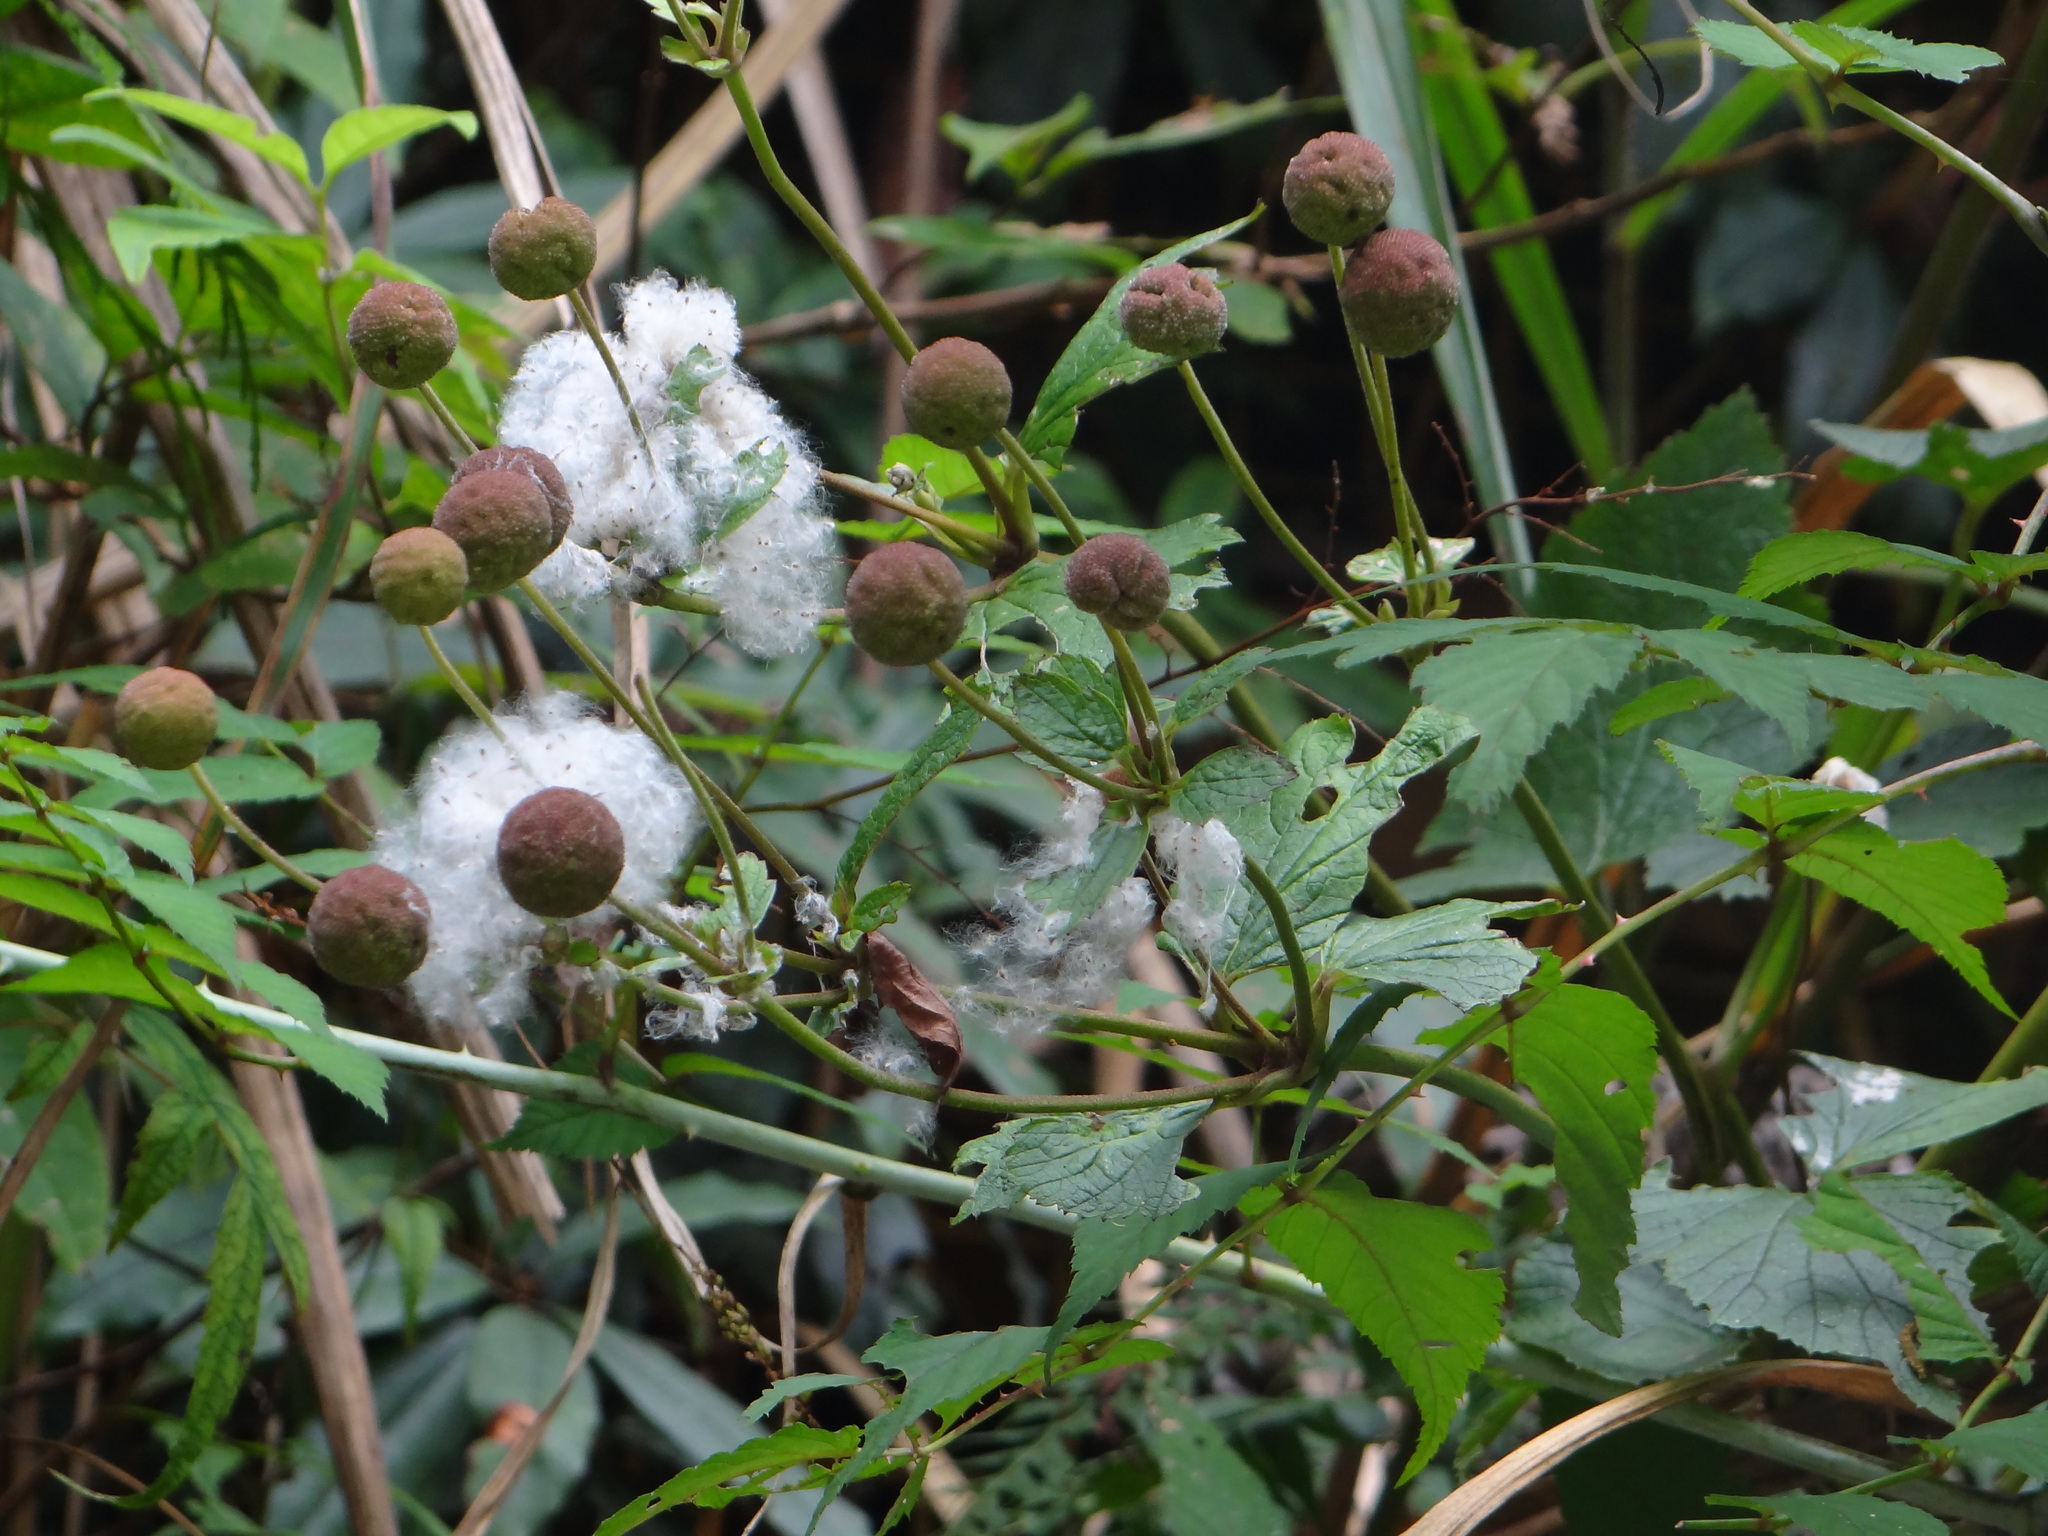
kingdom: Plantae
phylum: Tracheophyta
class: Magnoliopsida
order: Ranunculales
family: Ranunculaceae
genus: Eriocapitella
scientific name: Eriocapitella vitifolia
